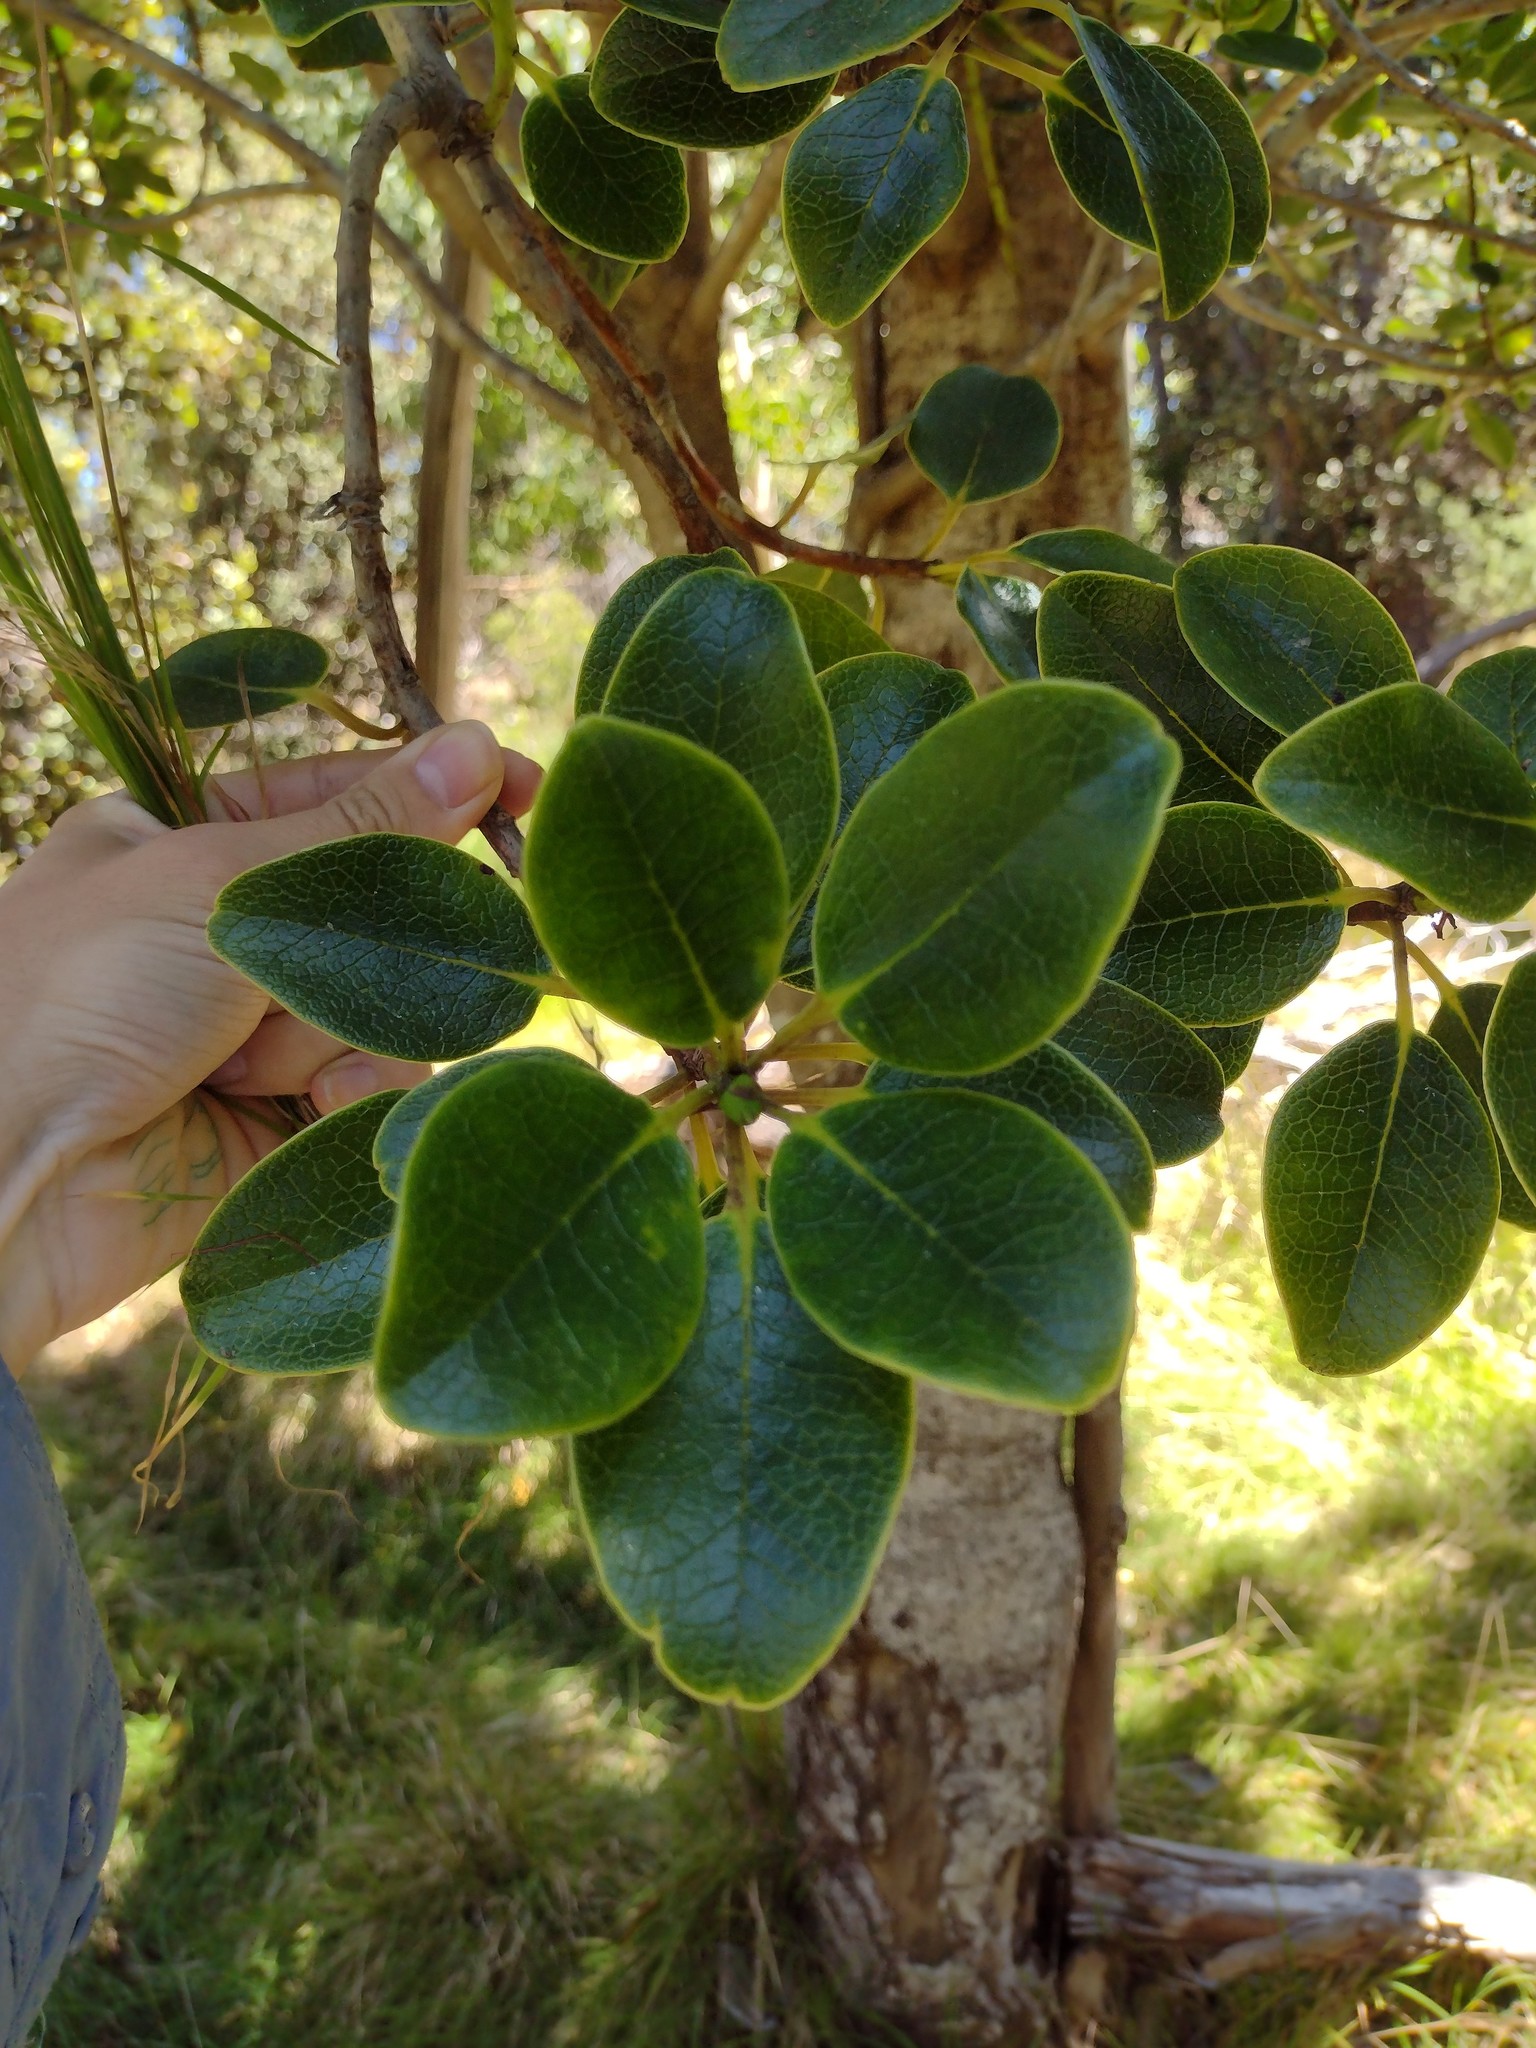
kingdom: Plantae
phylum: Tracheophyta
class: Magnoliopsida
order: Aquifoliales
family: Aquifoliaceae
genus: Ilex
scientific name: Ilex anomala
